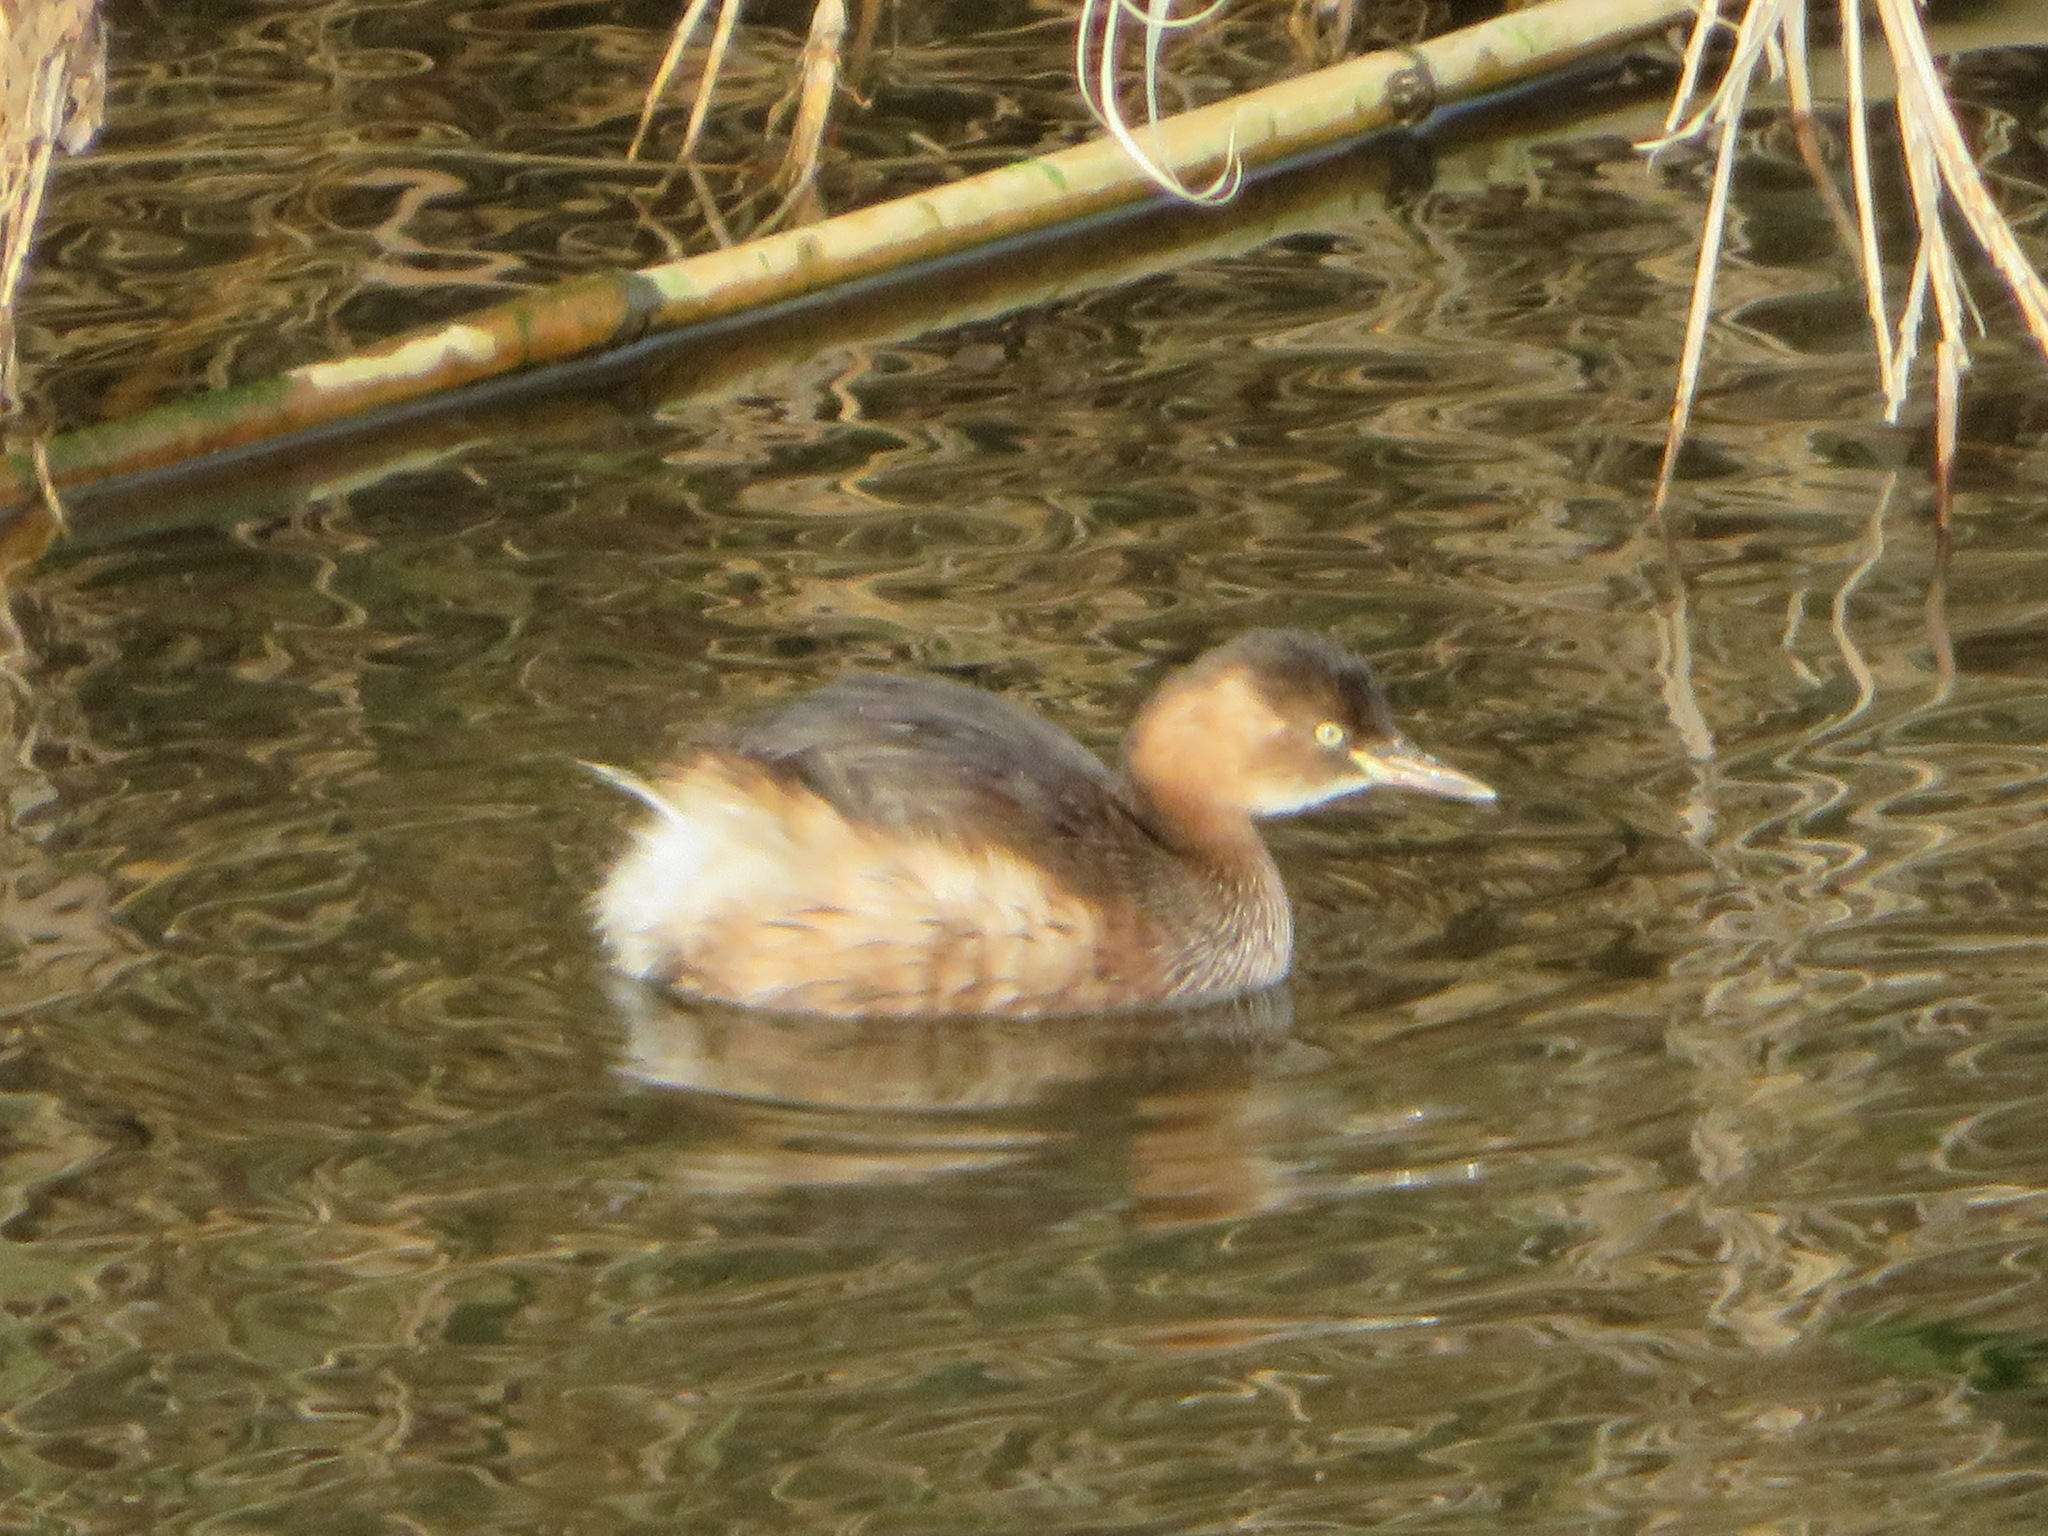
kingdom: Animalia
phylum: Chordata
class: Aves
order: Podicipediformes
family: Podicipedidae
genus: Tachybaptus
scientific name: Tachybaptus ruficollis
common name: Little grebe
